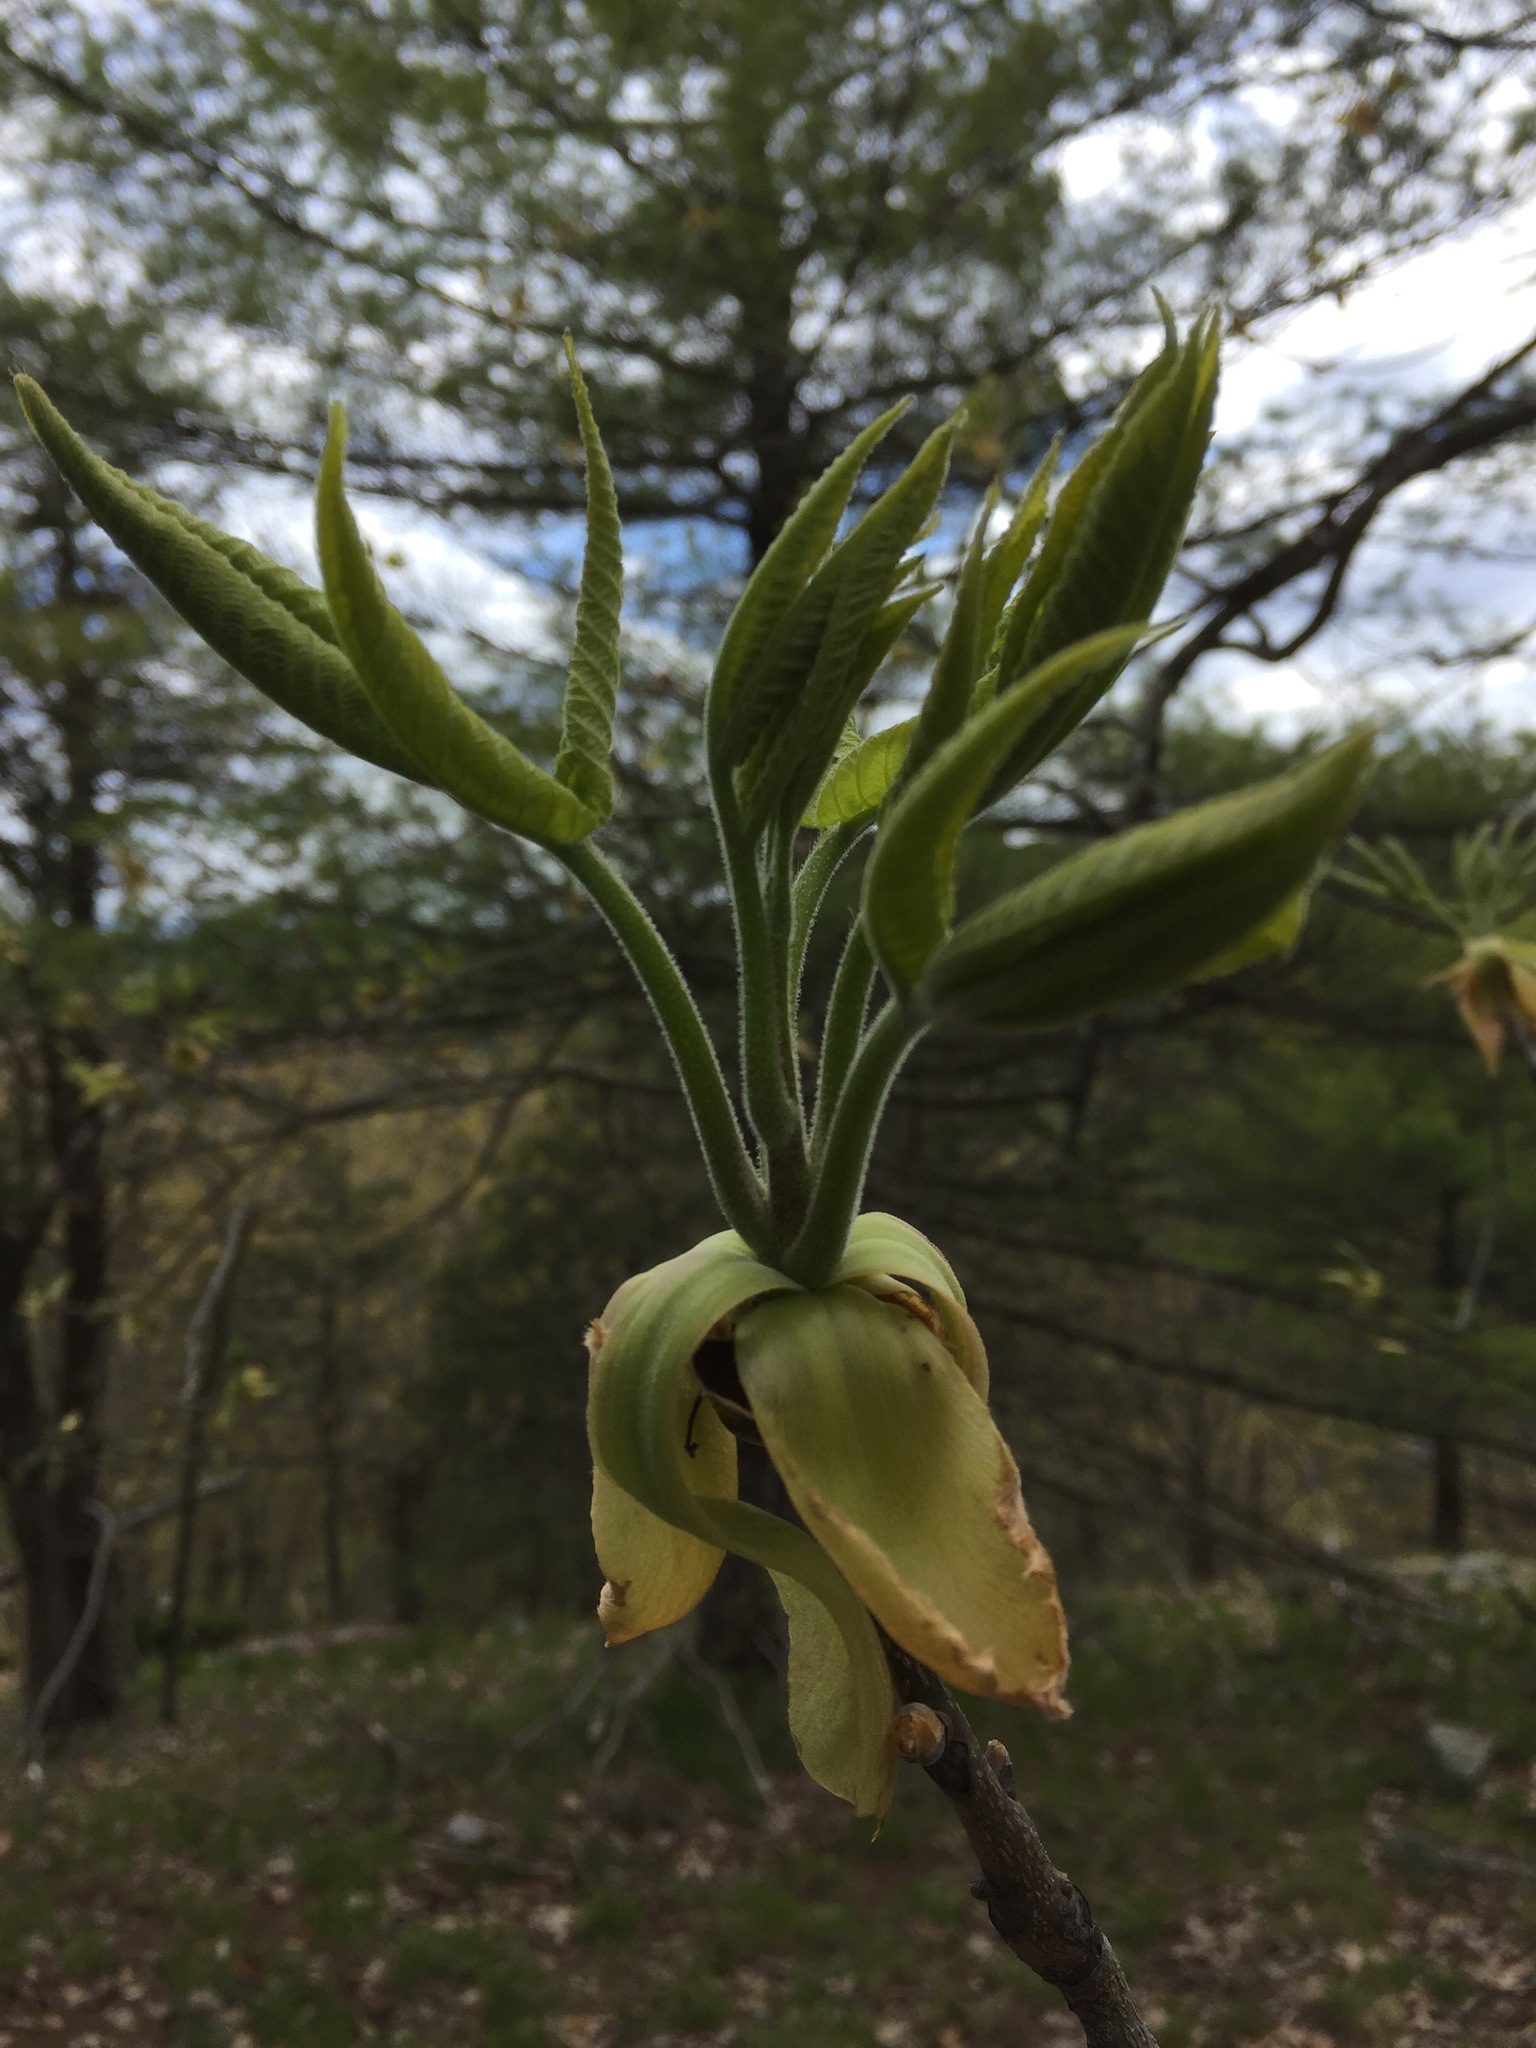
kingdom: Plantae
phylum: Tracheophyta
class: Magnoliopsida
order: Fagales
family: Juglandaceae
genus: Carya
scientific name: Carya ovata
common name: Shagbark hickory
